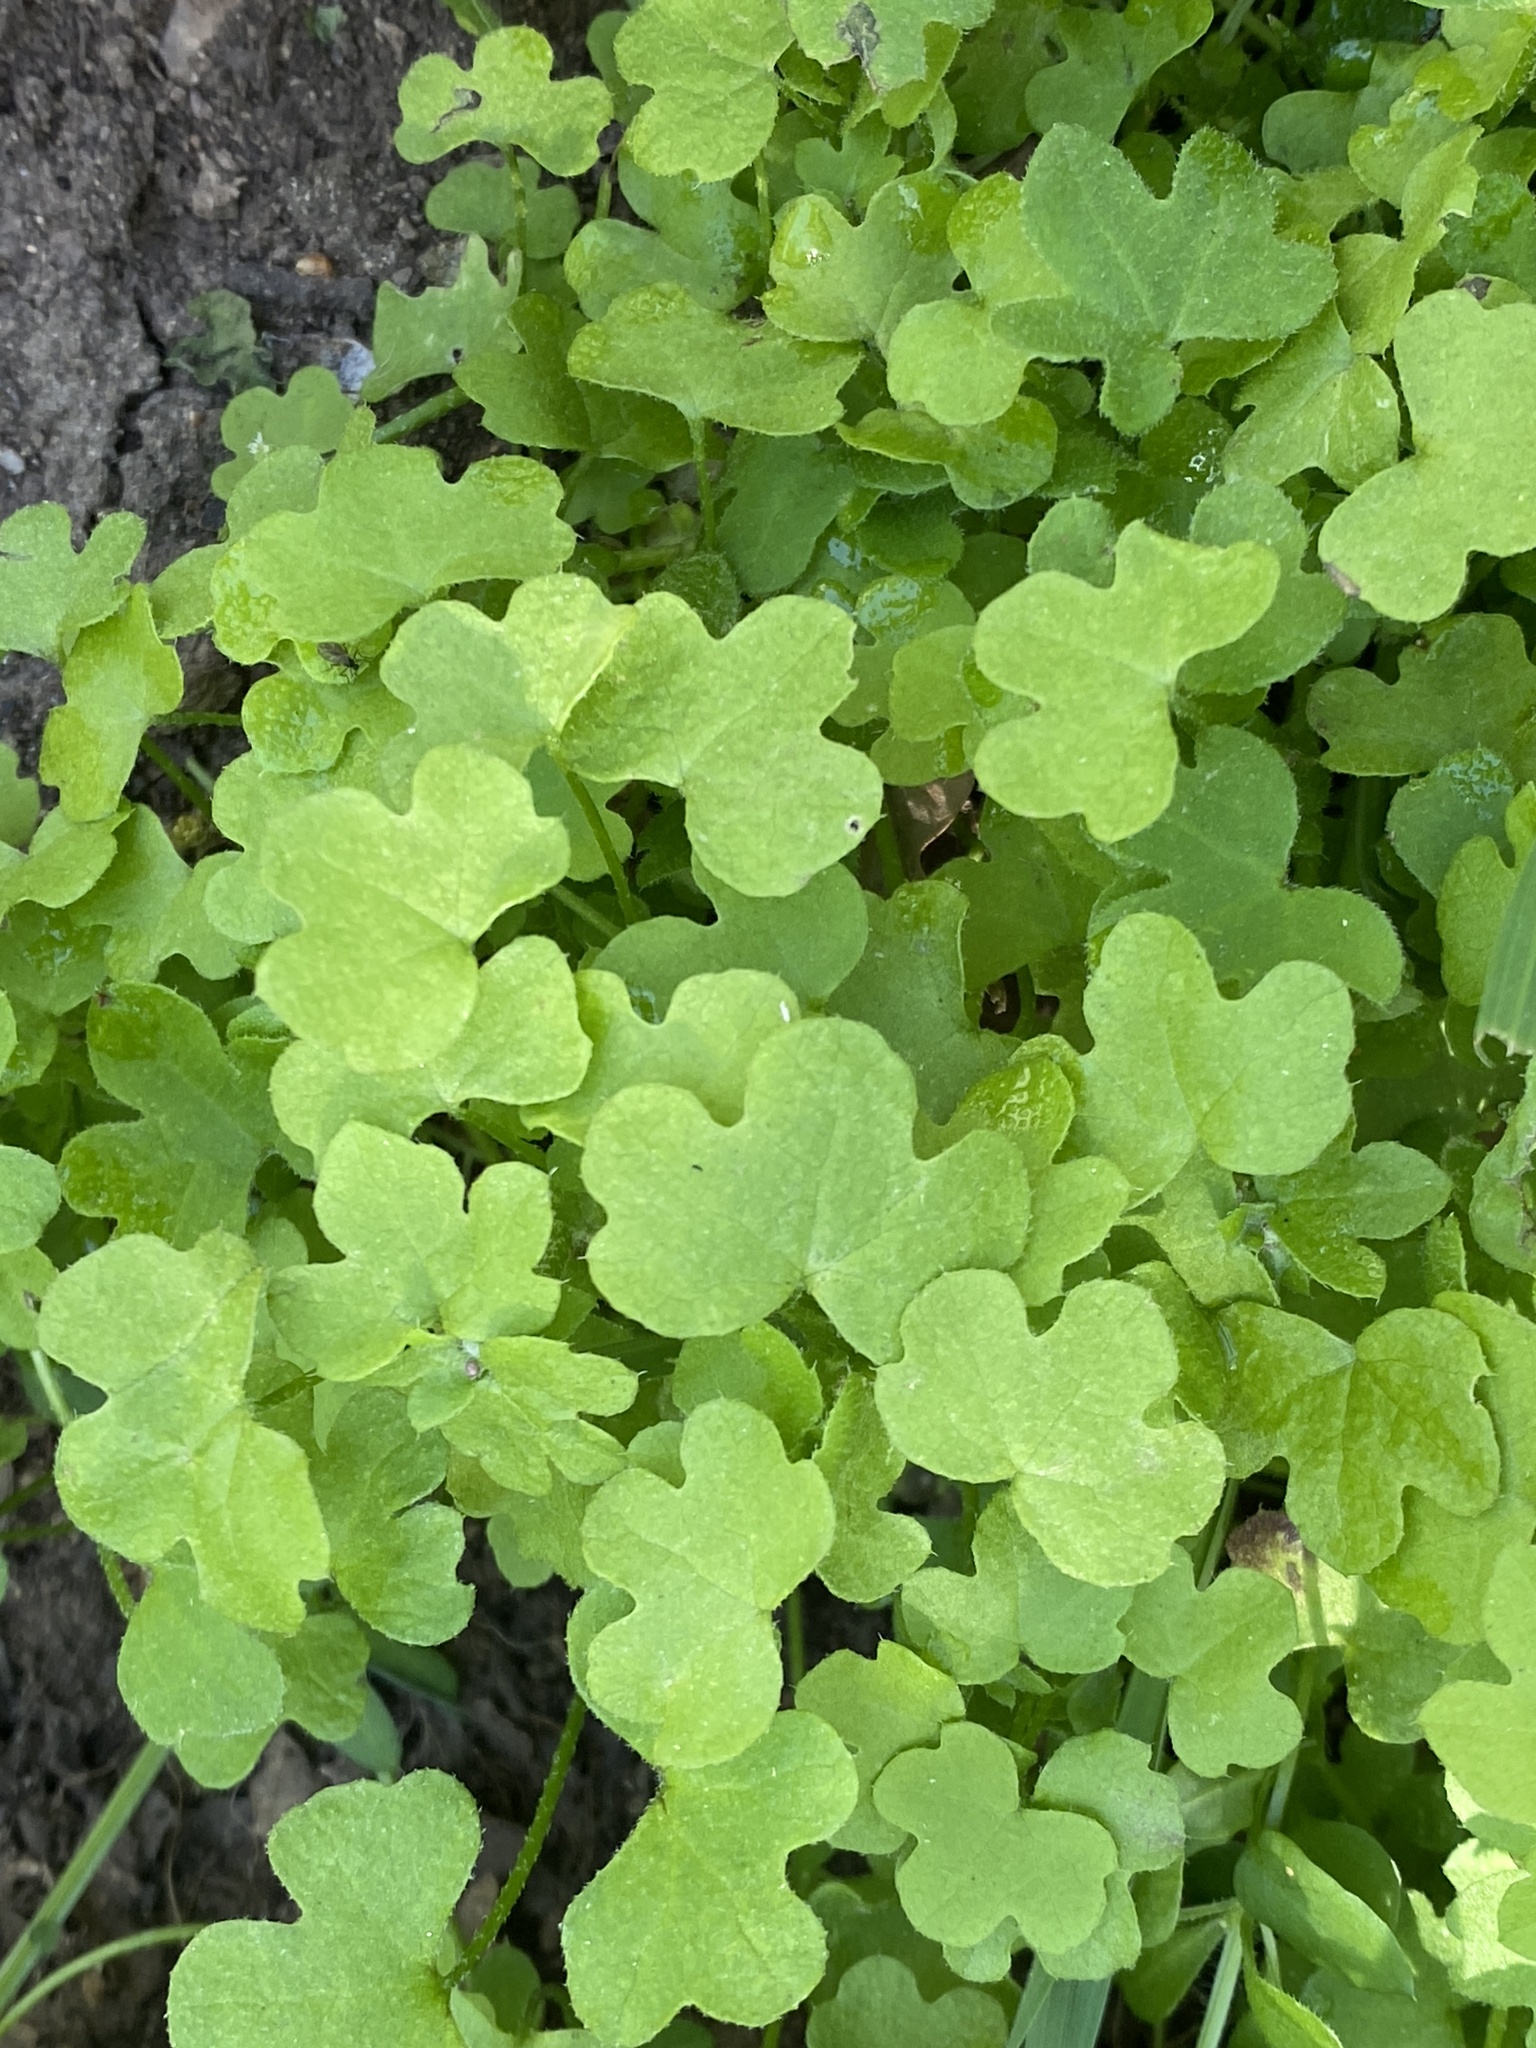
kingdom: Plantae
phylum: Tracheophyta
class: Magnoliopsida
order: Apiales
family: Apiaceae
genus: Bowlesia
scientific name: Bowlesia incana
